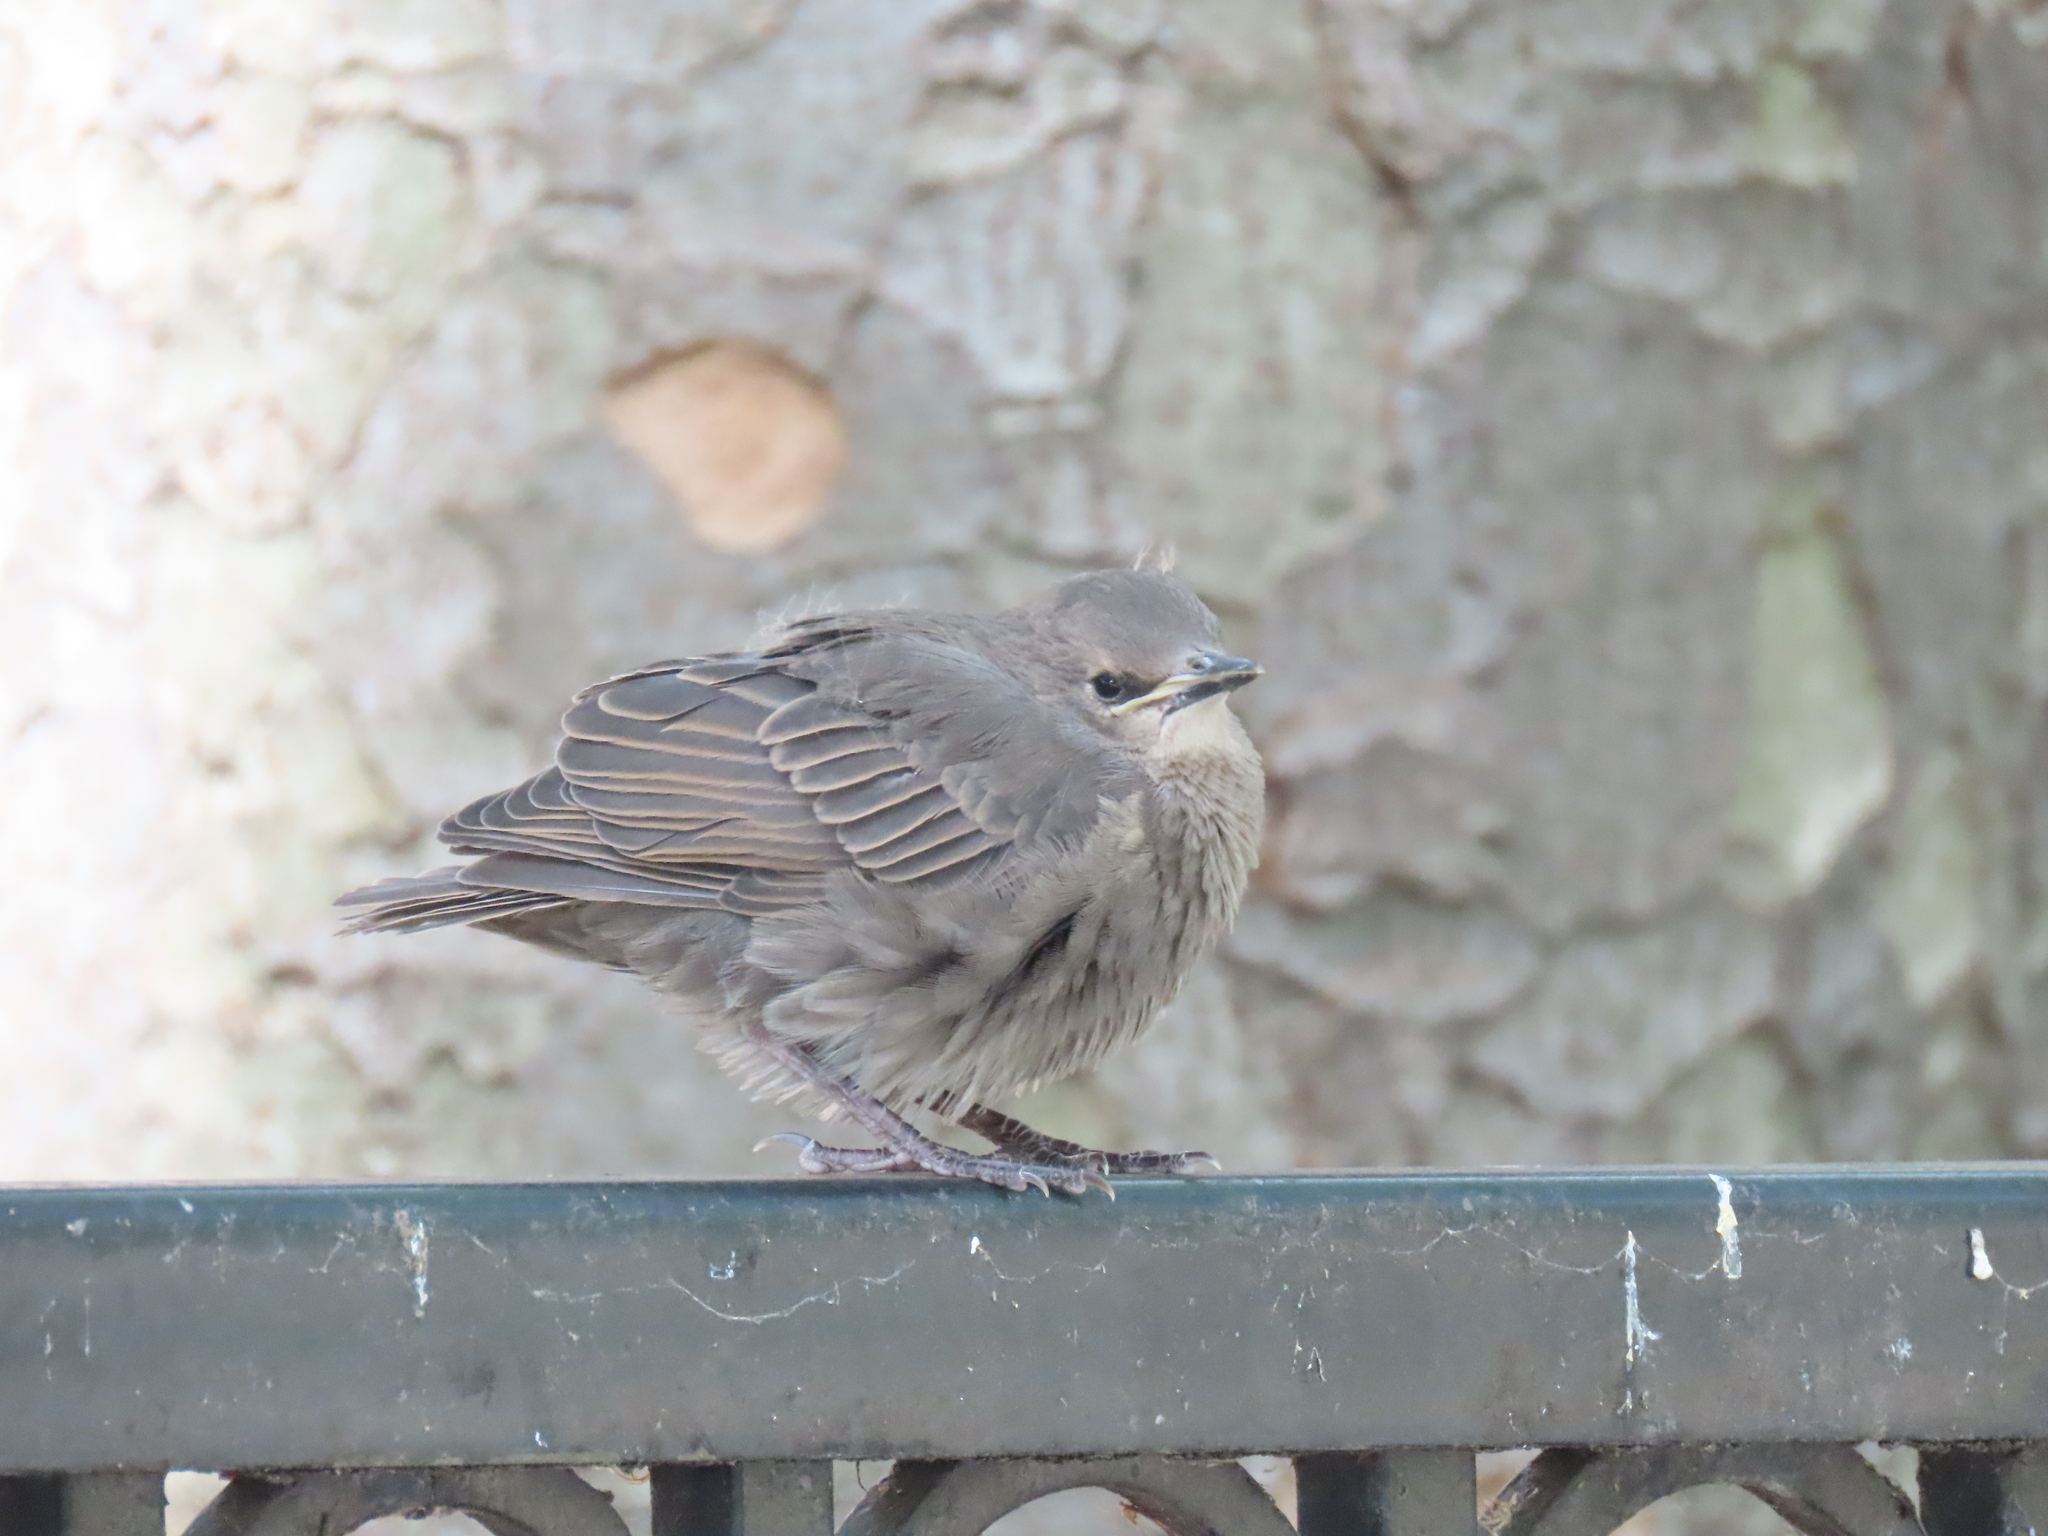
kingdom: Animalia
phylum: Chordata
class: Aves
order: Passeriformes
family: Sturnidae
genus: Sturnus
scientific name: Sturnus vulgaris
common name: Common starling
